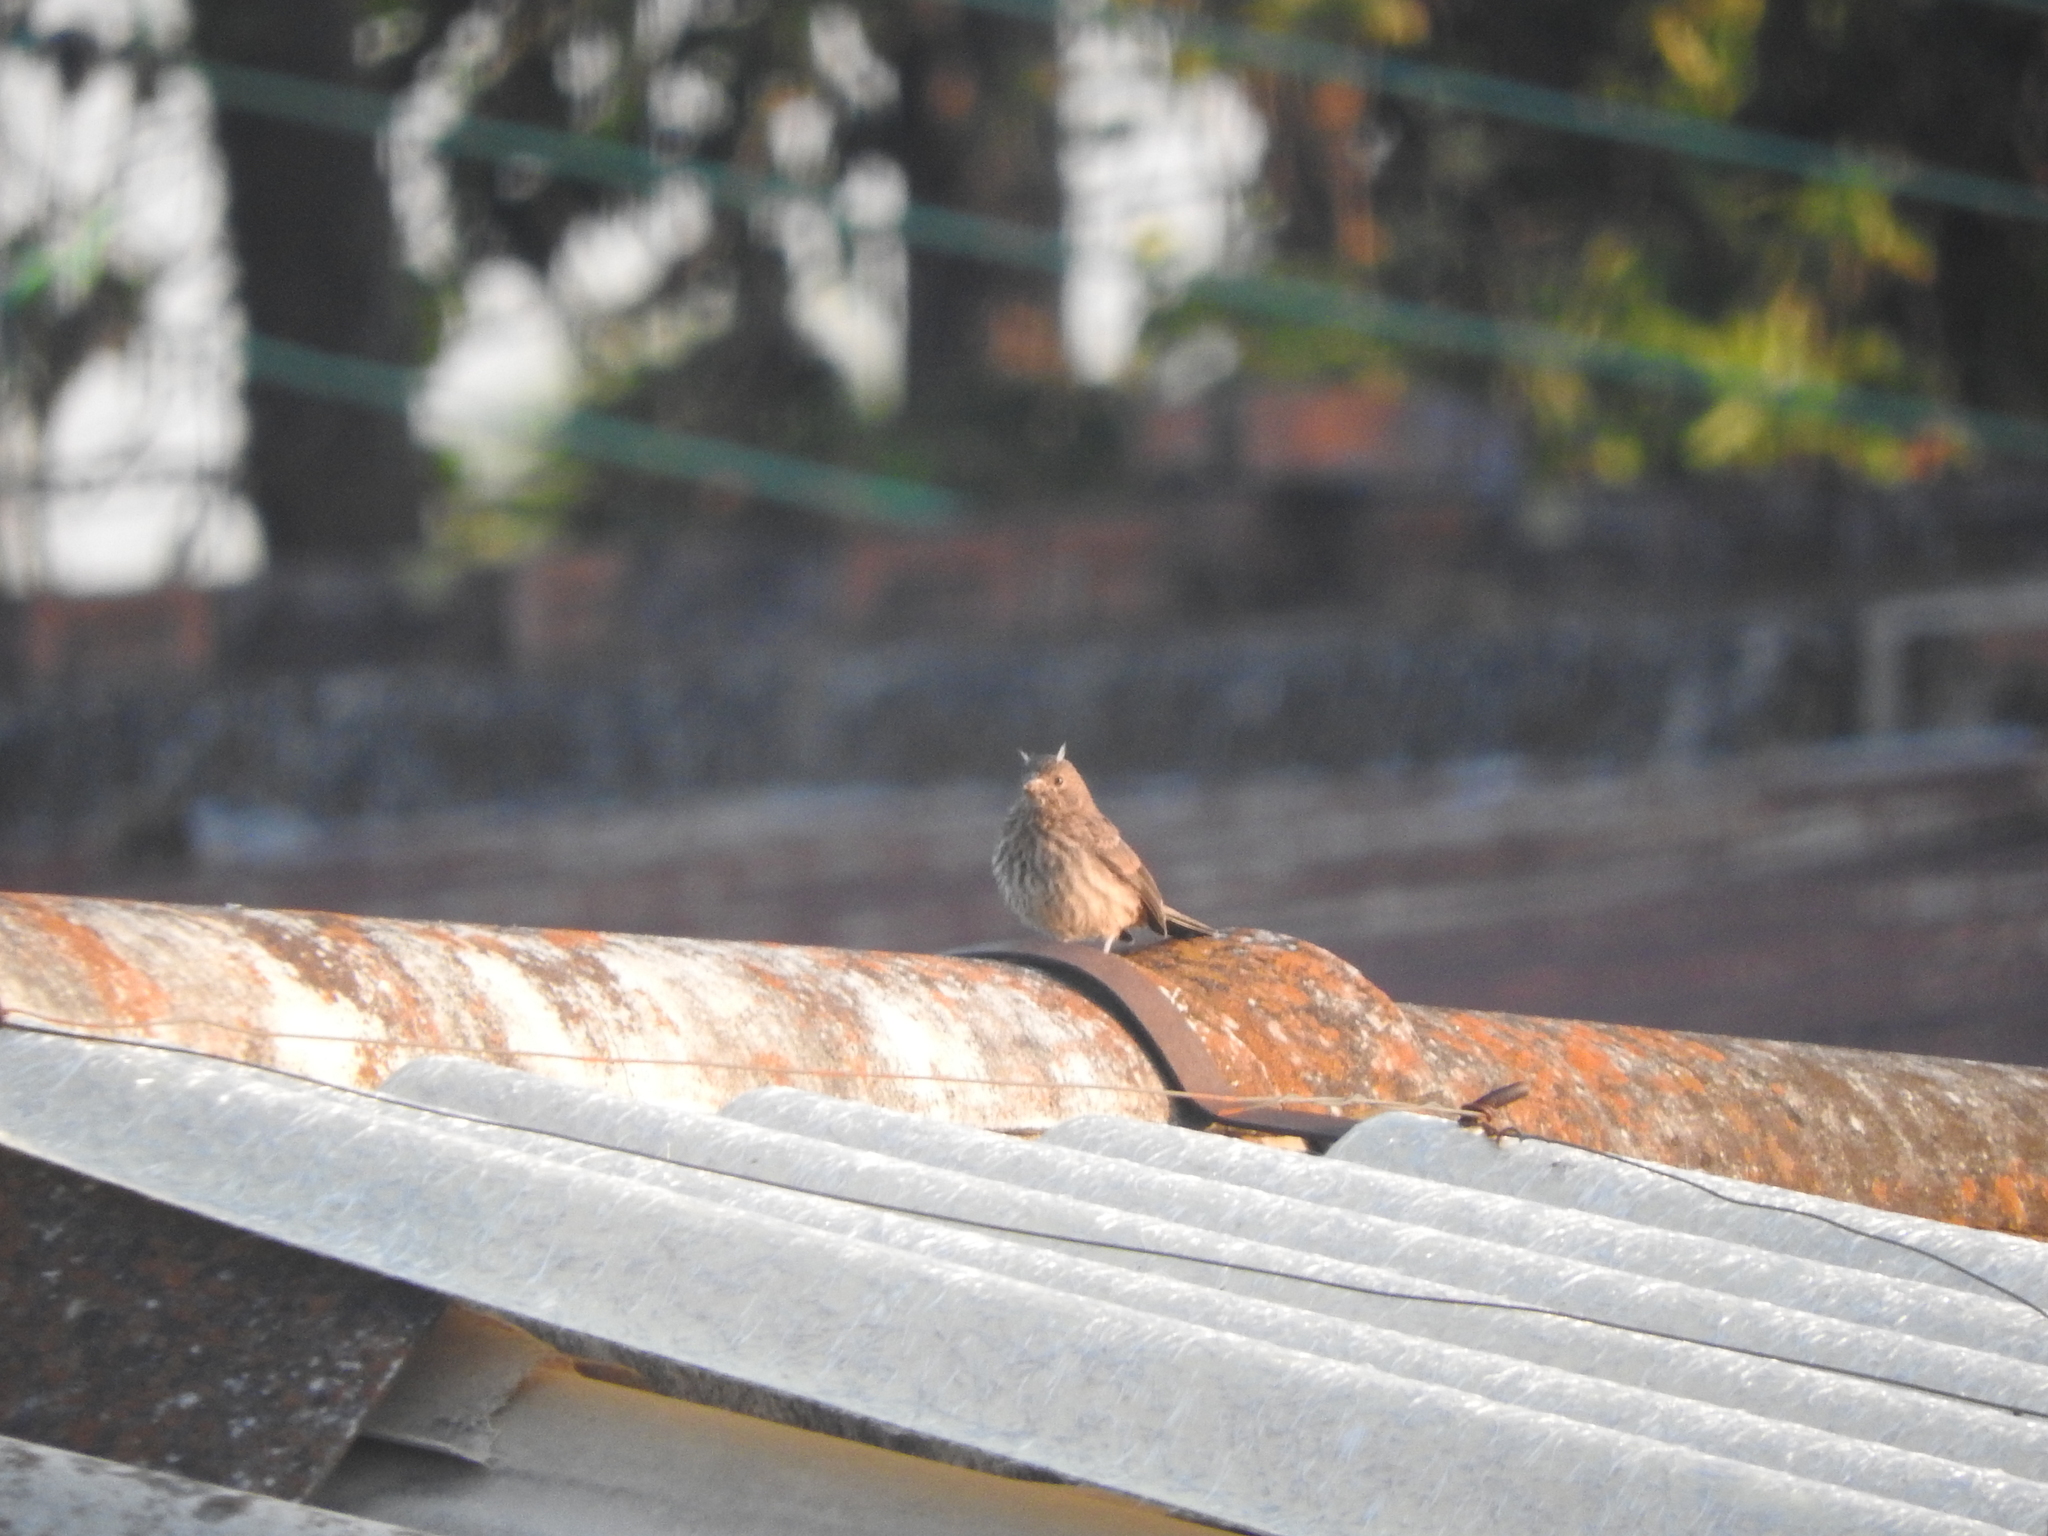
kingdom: Animalia
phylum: Chordata
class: Aves
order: Passeriformes
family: Fringillidae
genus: Haemorhous
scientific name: Haemorhous mexicanus
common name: House finch
